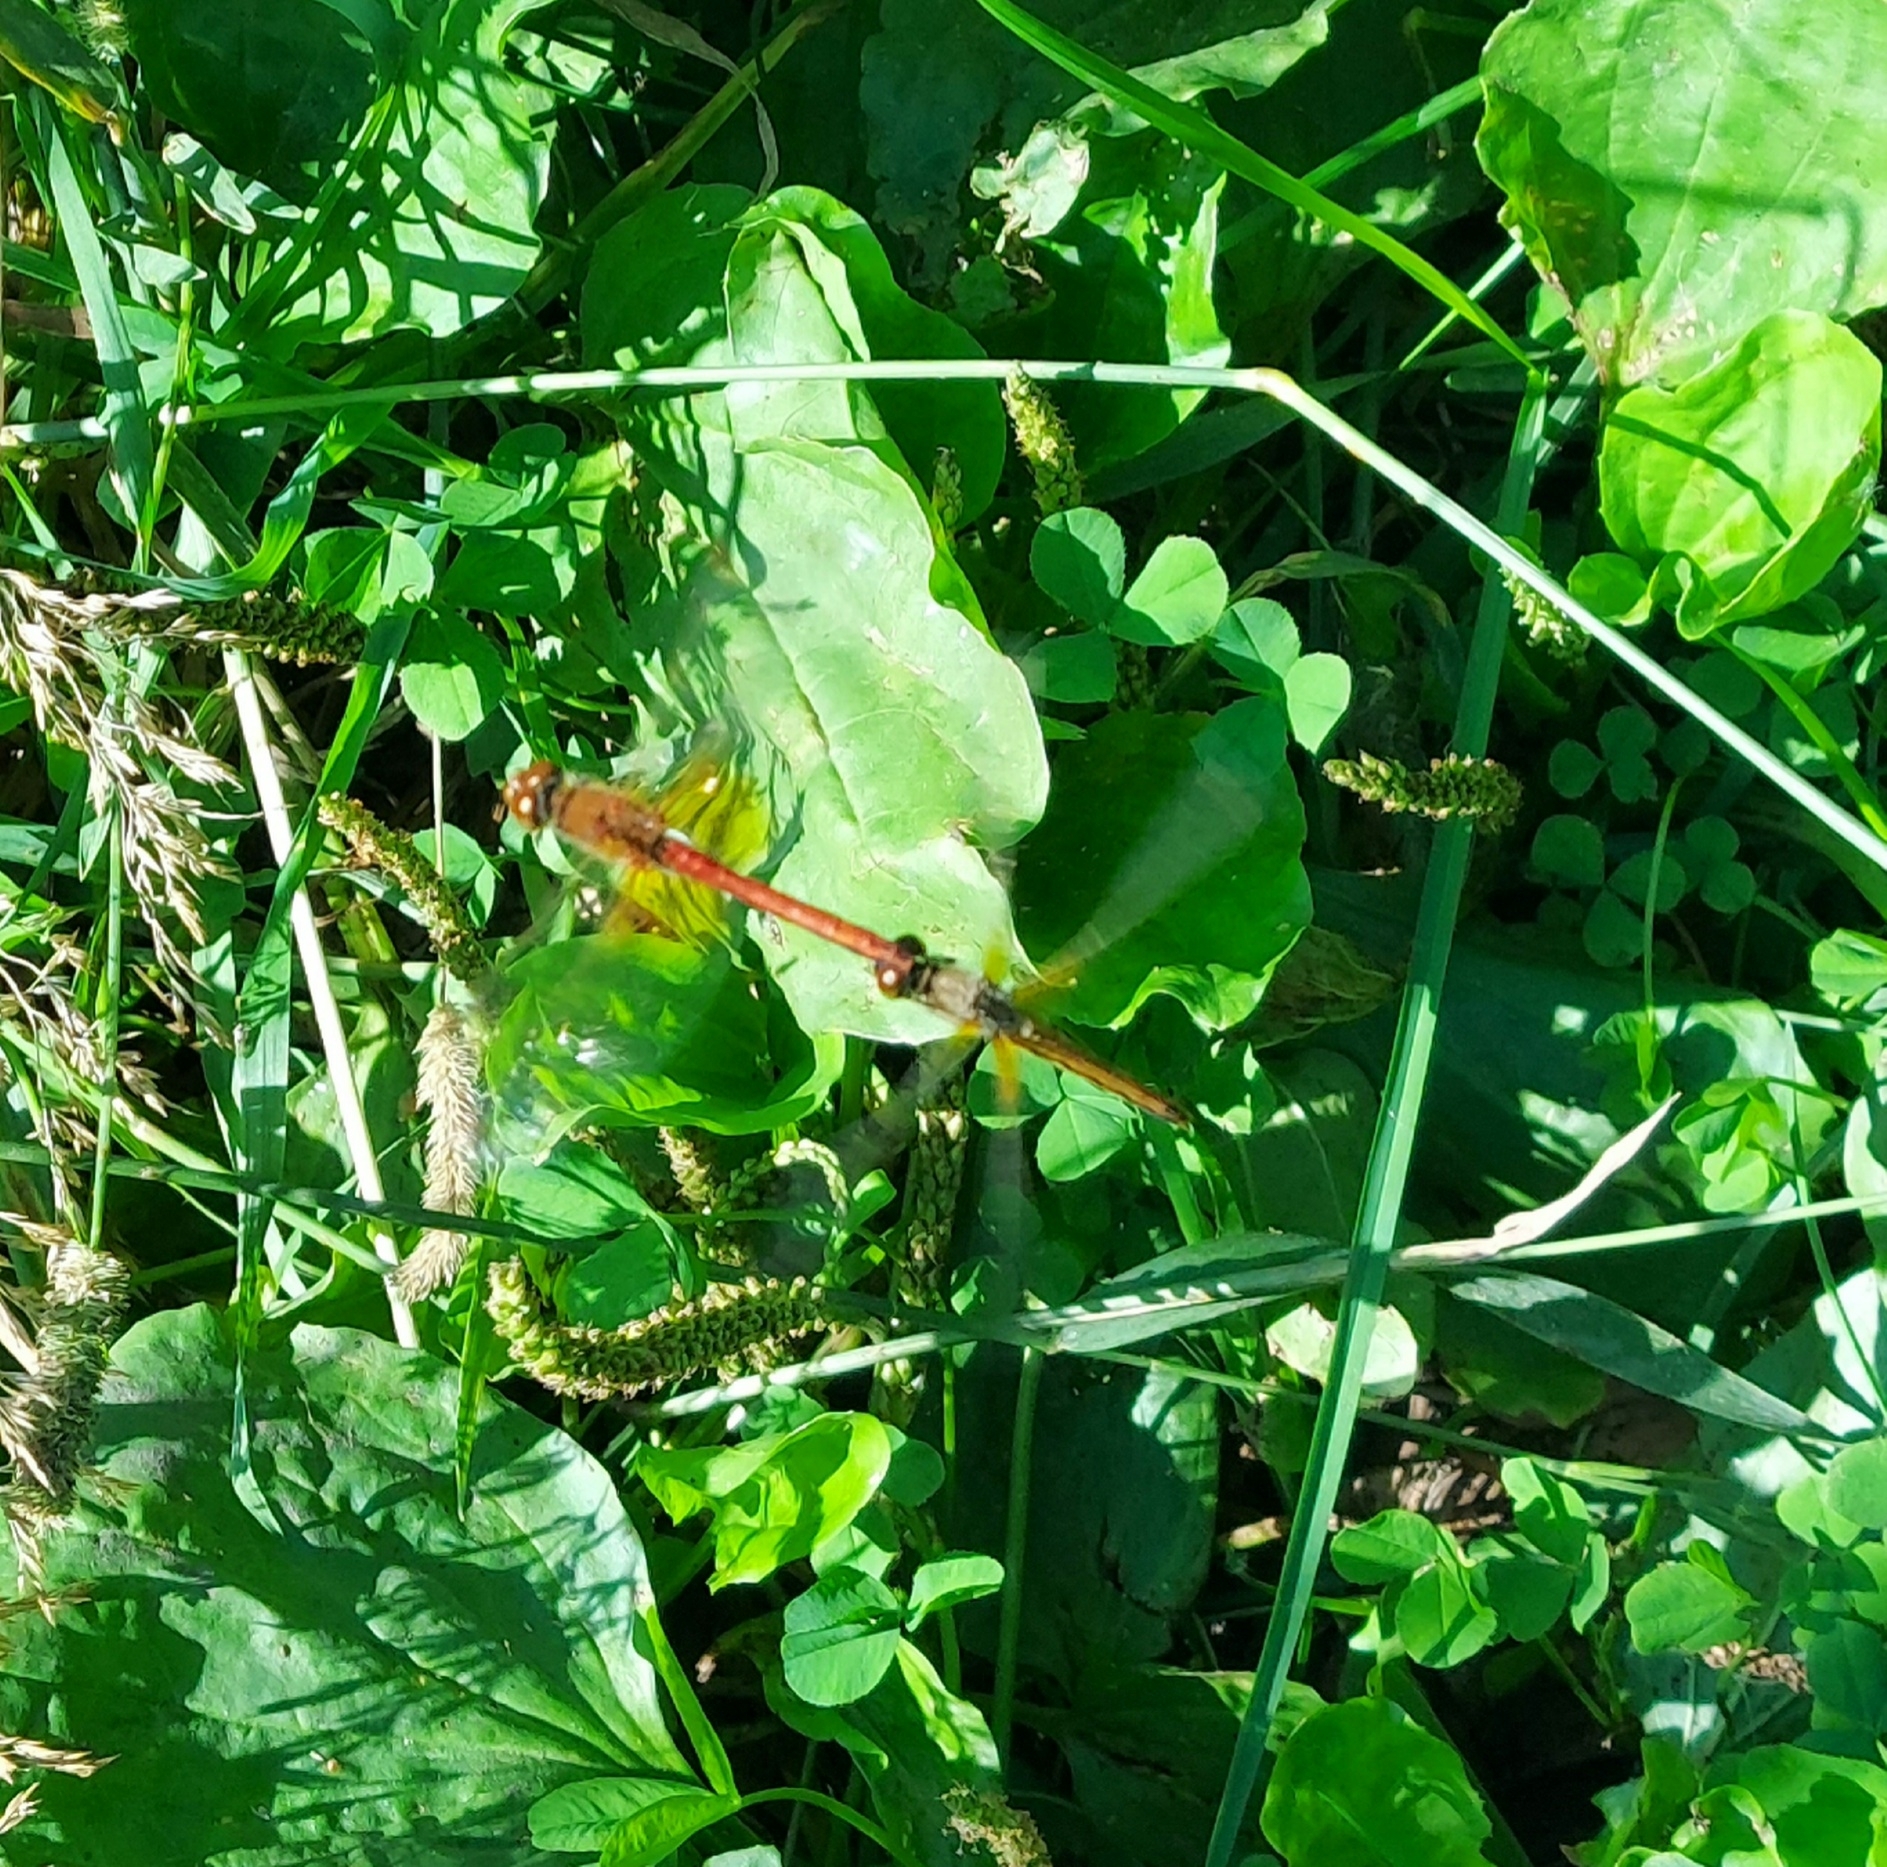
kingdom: Animalia
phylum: Arthropoda
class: Insecta
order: Odonata
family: Libellulidae
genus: Sympetrum
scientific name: Sympetrum flaveolum
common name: Yellow-winged darter
